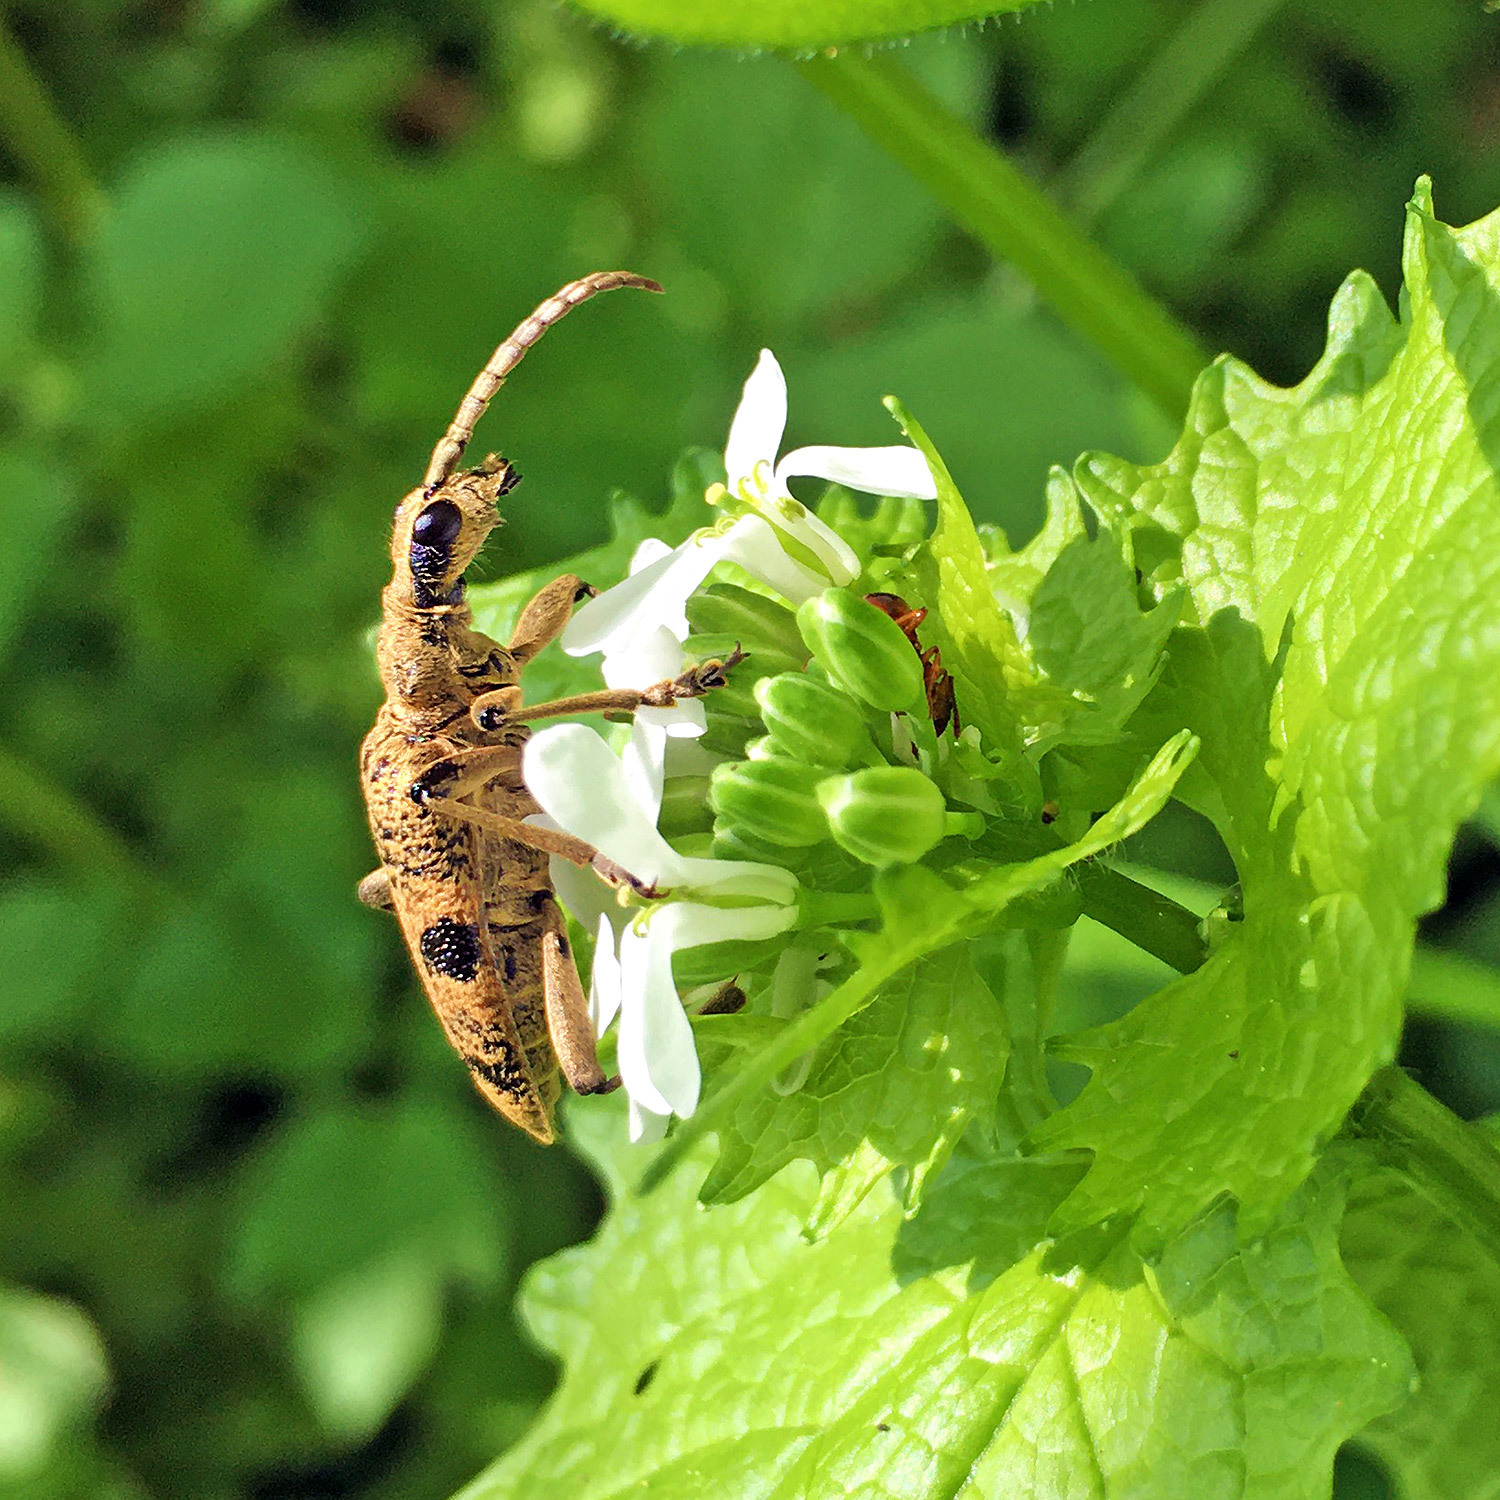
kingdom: Animalia
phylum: Arthropoda
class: Insecta
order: Coleoptera
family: Cerambycidae
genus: Rhagium
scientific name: Rhagium mordax
